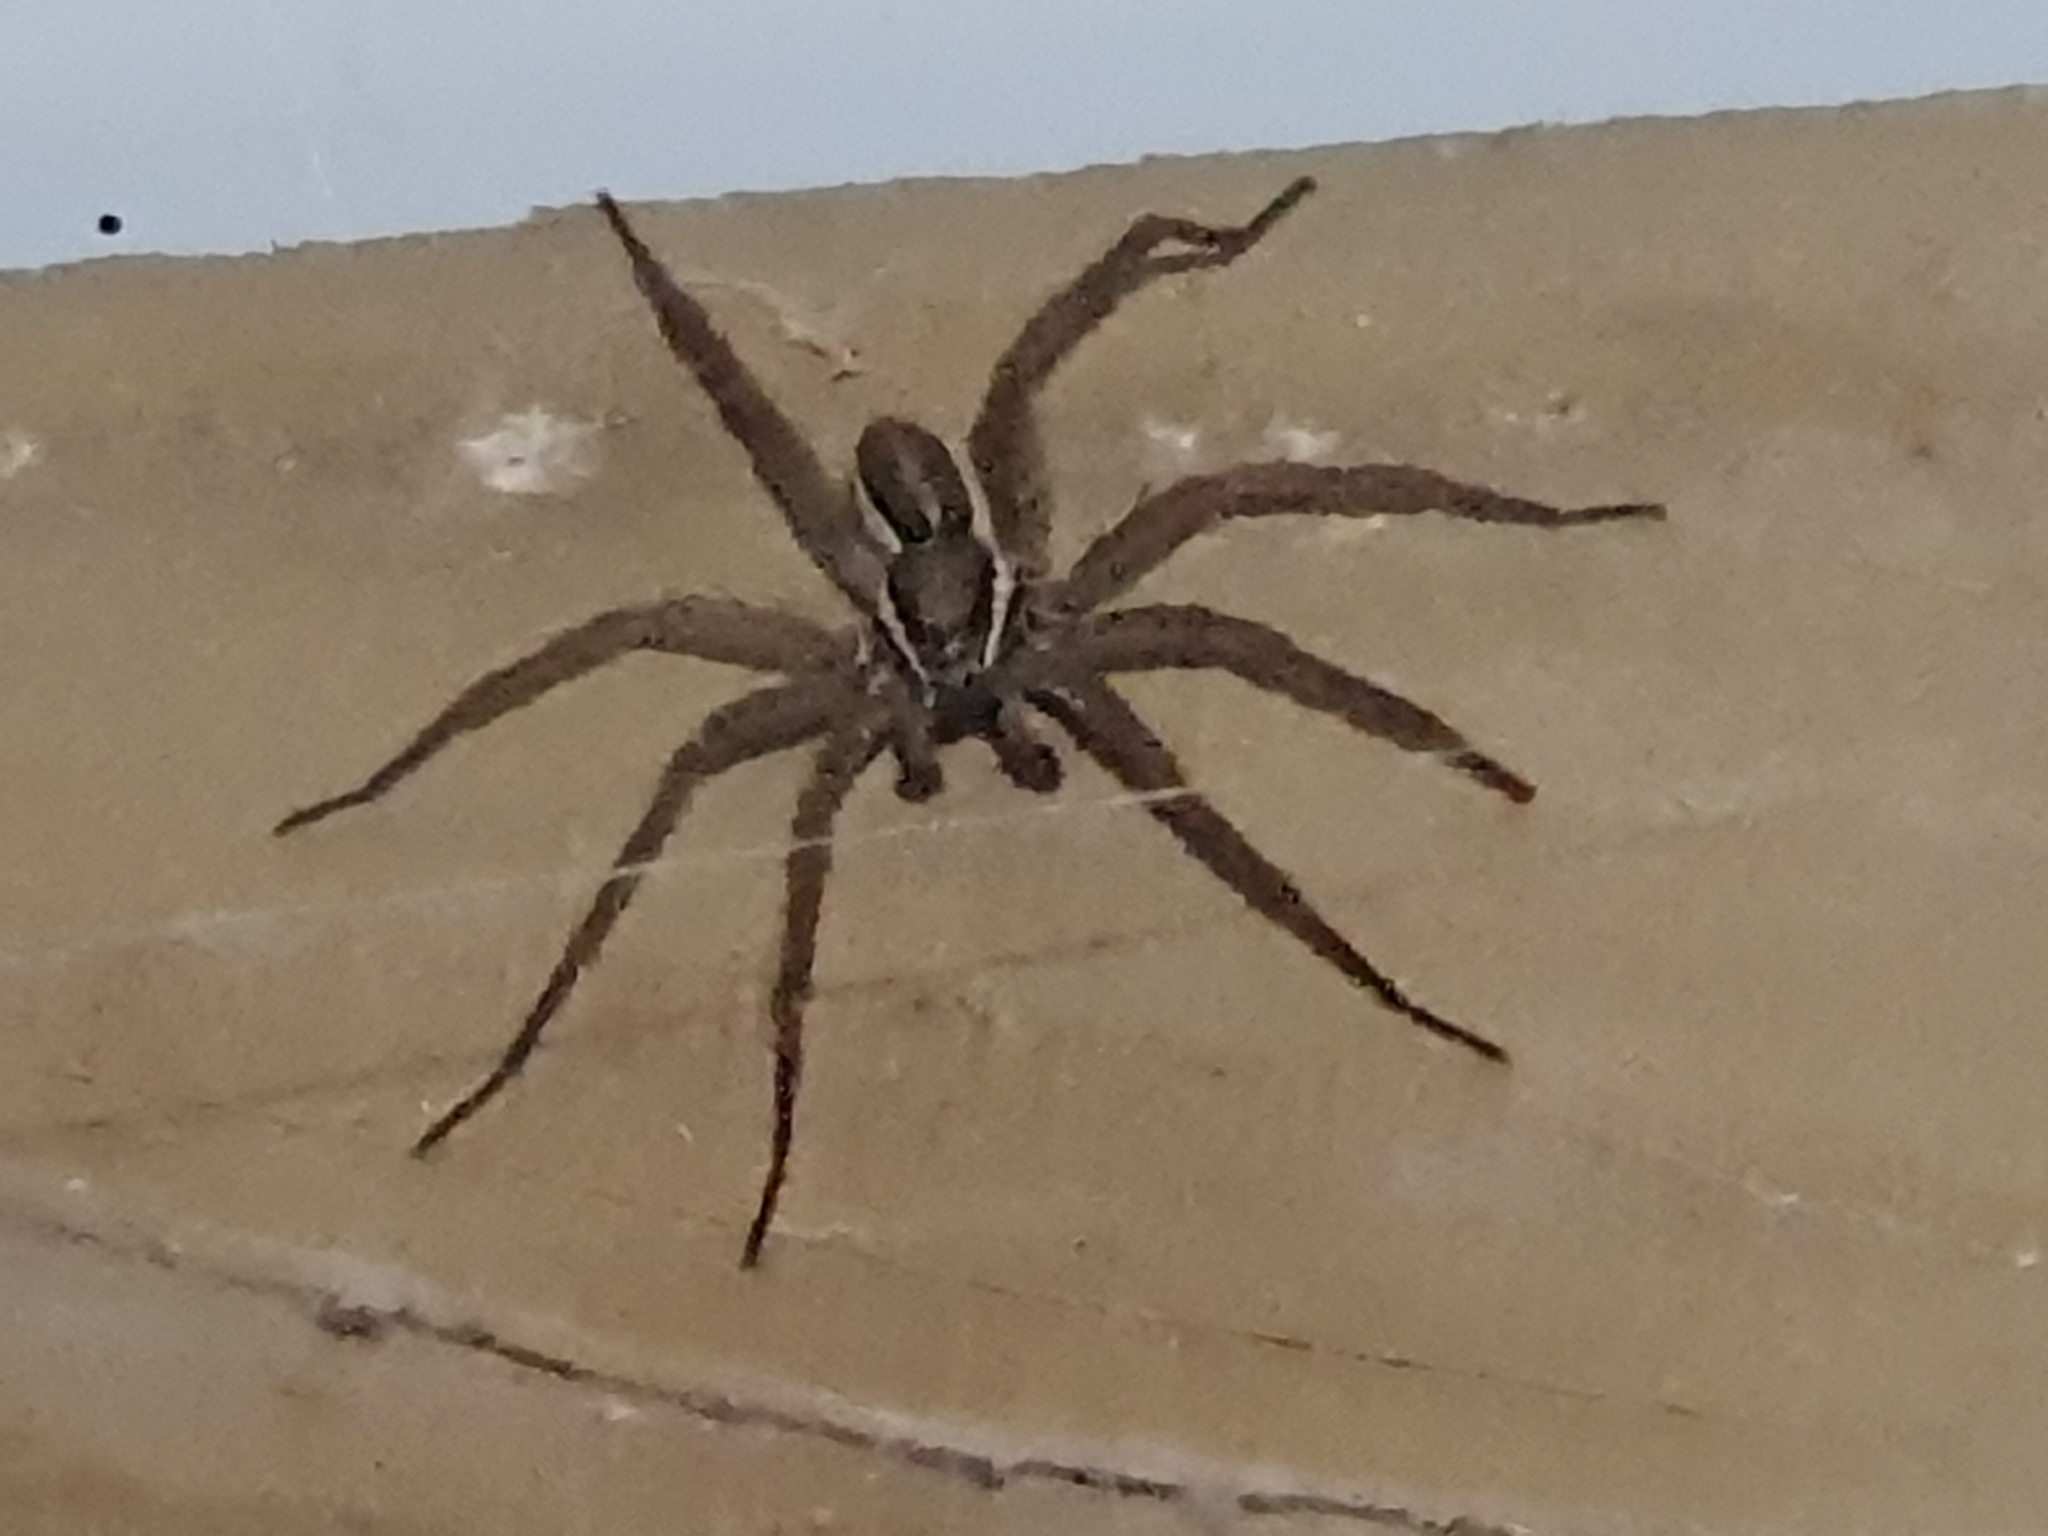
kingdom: Animalia
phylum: Arthropoda
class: Arachnida
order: Araneae
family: Pisauridae
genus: Dolomedes
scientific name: Dolomedes minor
